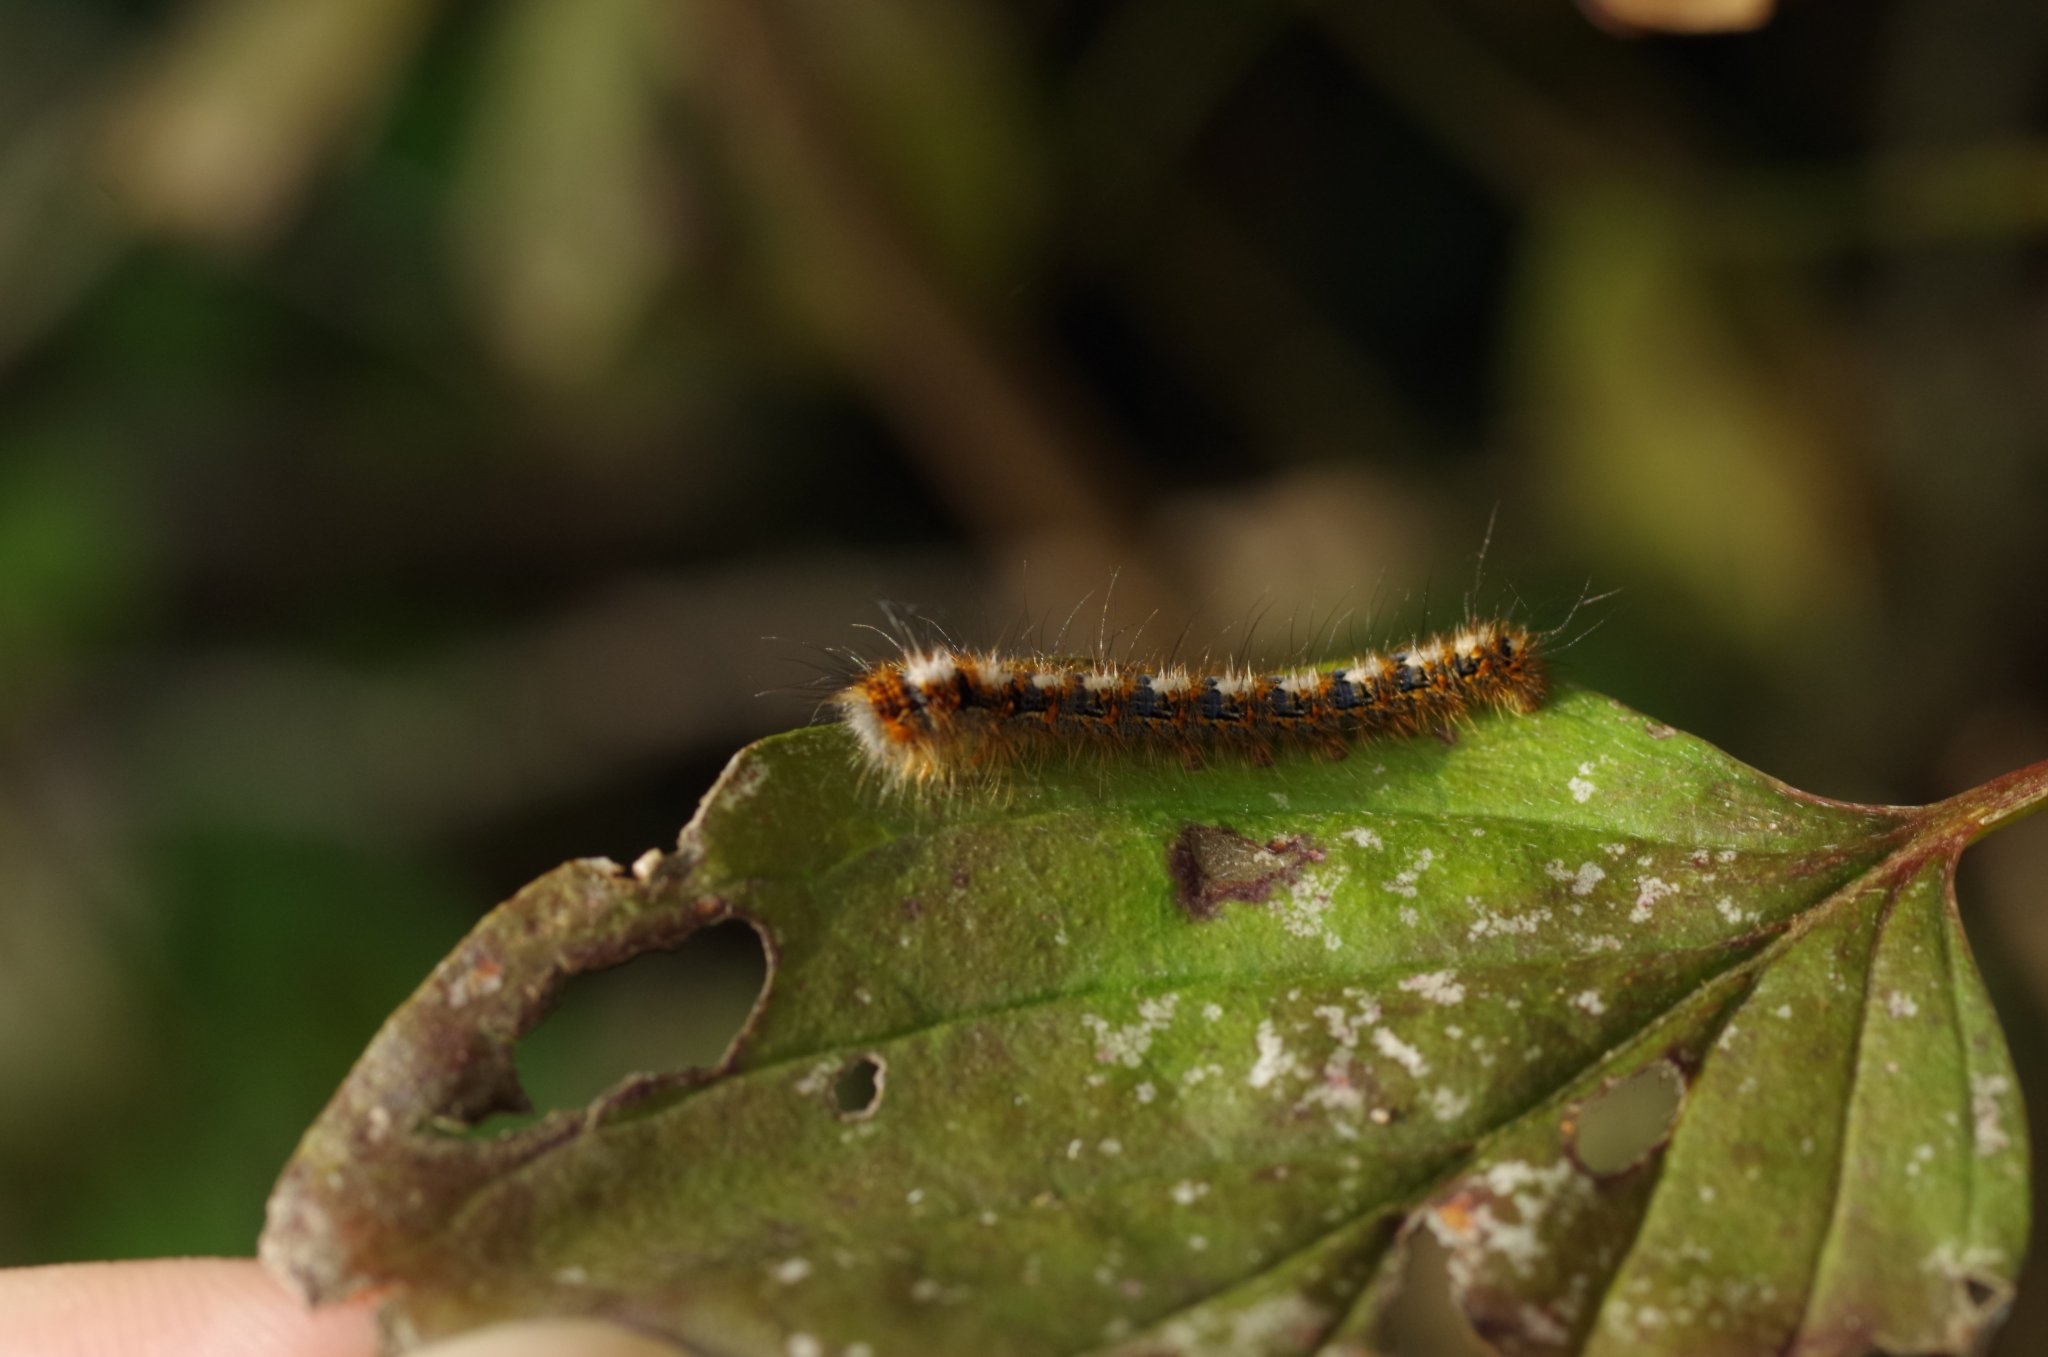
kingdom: Animalia
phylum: Arthropoda
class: Insecta
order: Lepidoptera
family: Lasiocampidae
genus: Lasiocampa
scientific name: Lasiocampa quercus
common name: Oak eggar
